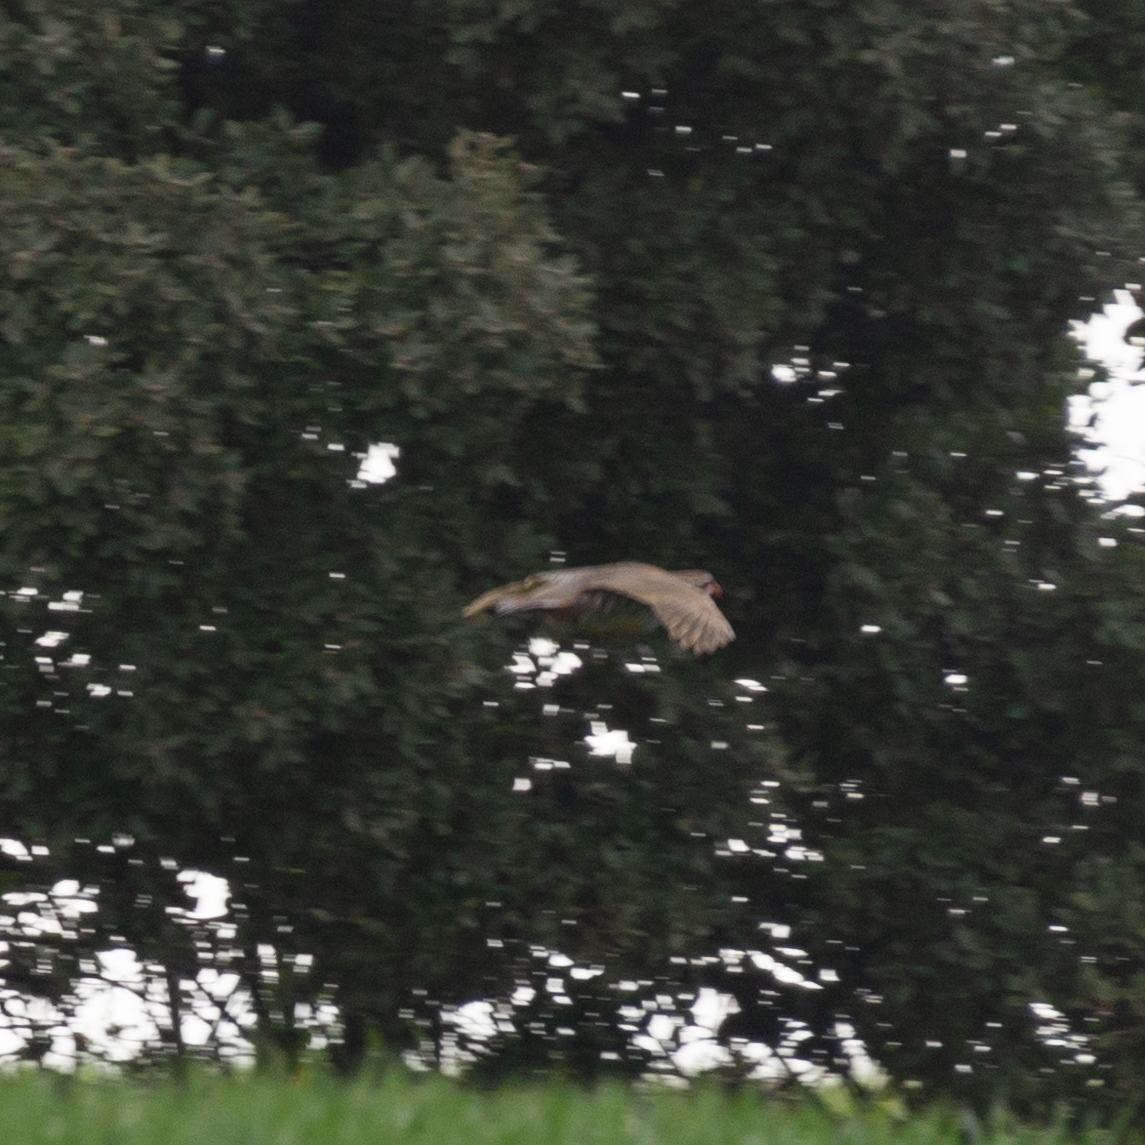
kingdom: Animalia
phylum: Chordata
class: Aves
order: Galliformes
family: Phasianidae
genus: Alectoris
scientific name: Alectoris rufa
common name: Red-legged partridge
